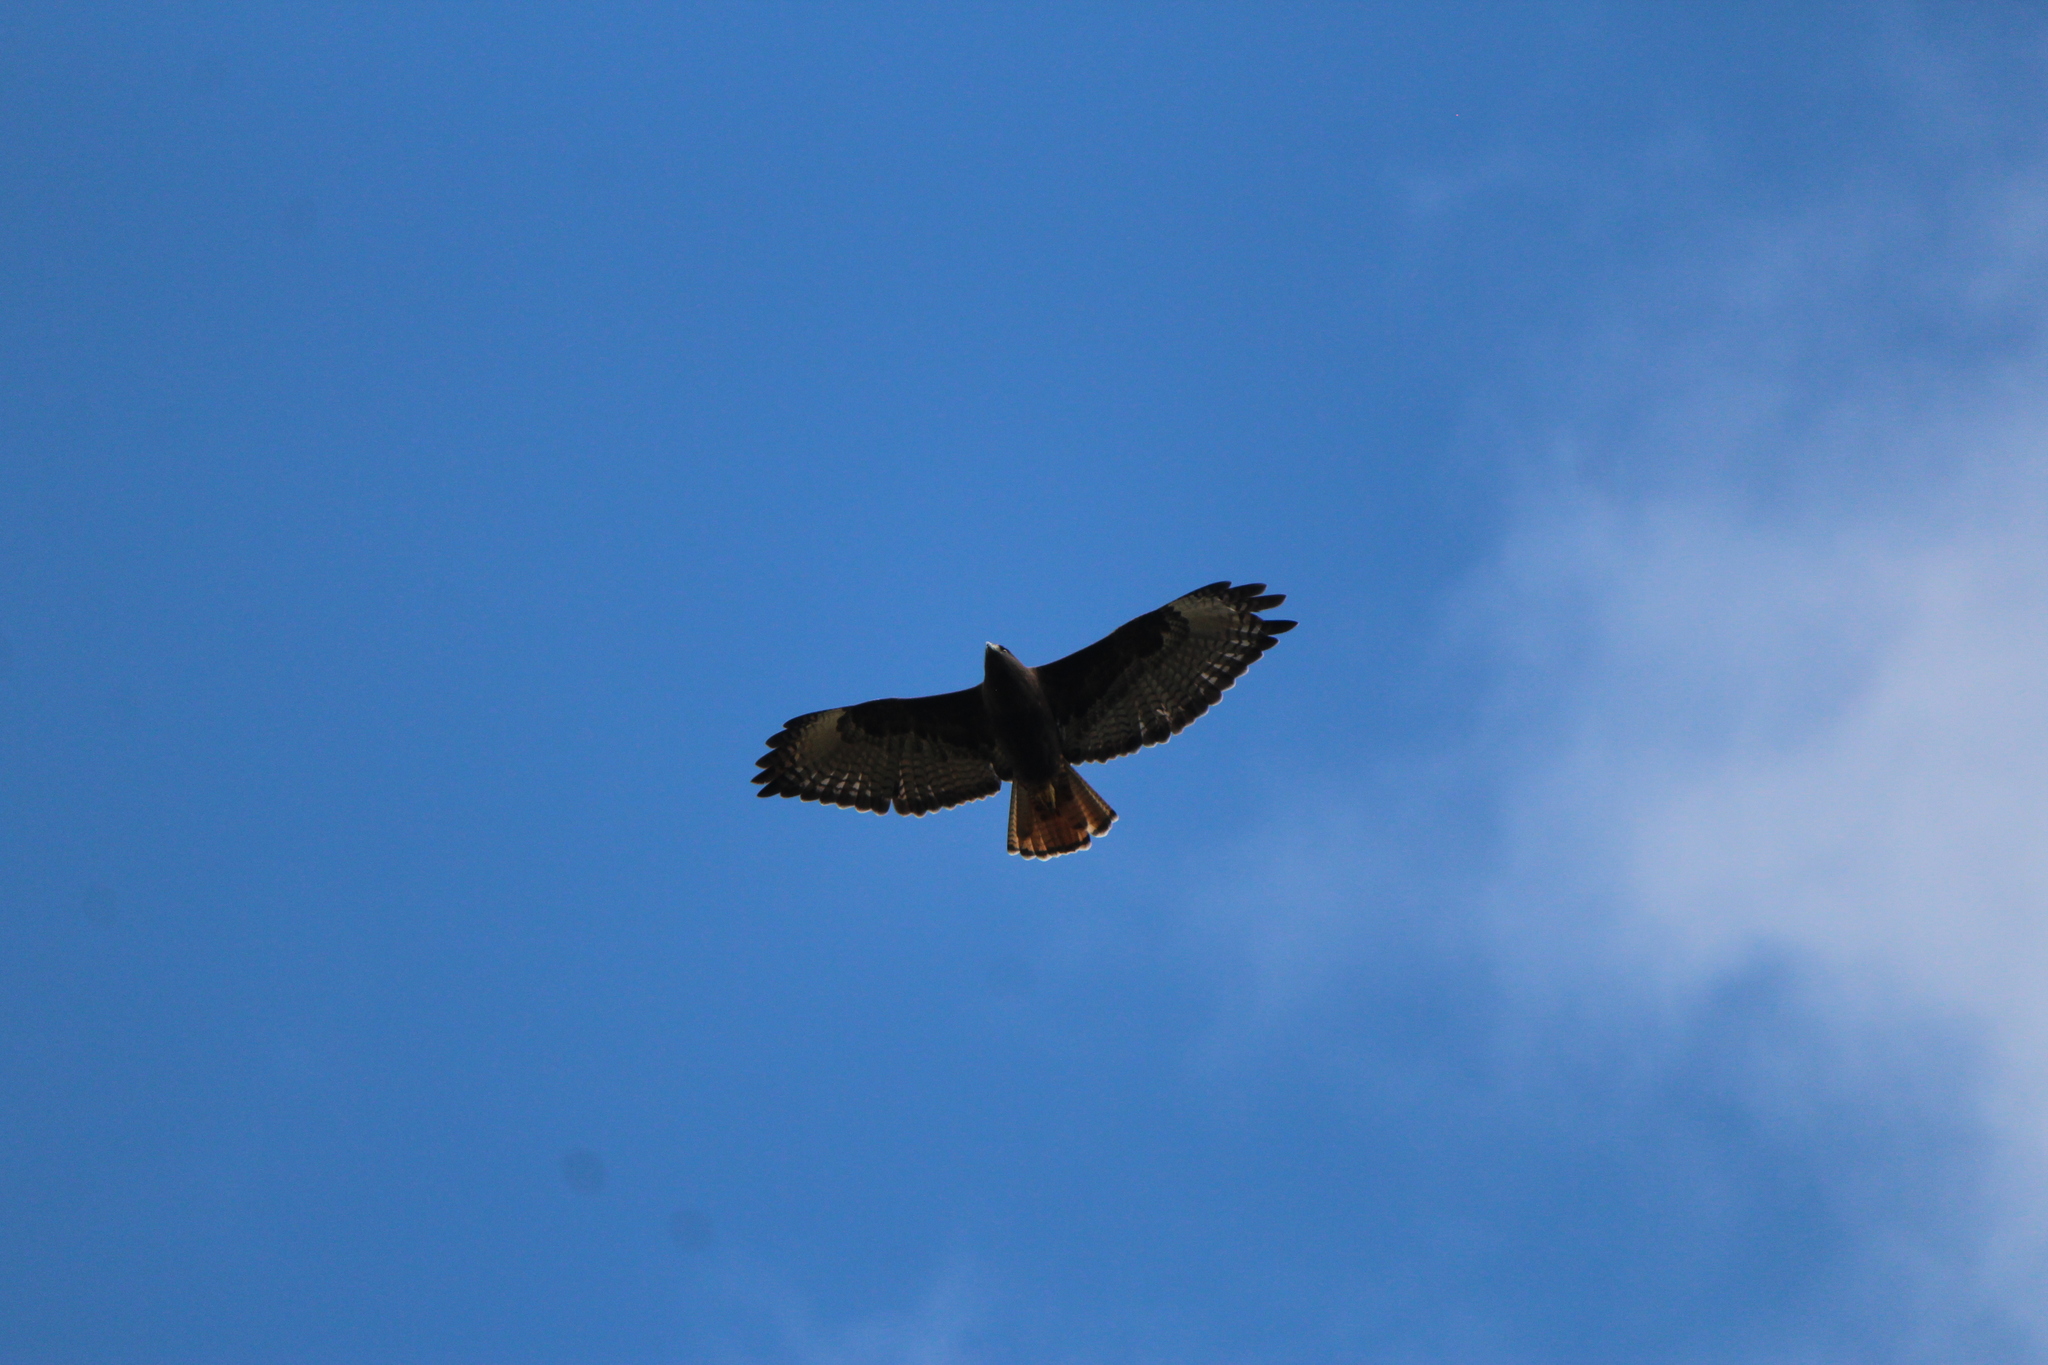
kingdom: Animalia
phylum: Chordata
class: Aves
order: Accipitriformes
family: Accipitridae
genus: Buteo
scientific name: Buteo jamaicensis
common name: Red-tailed hawk
